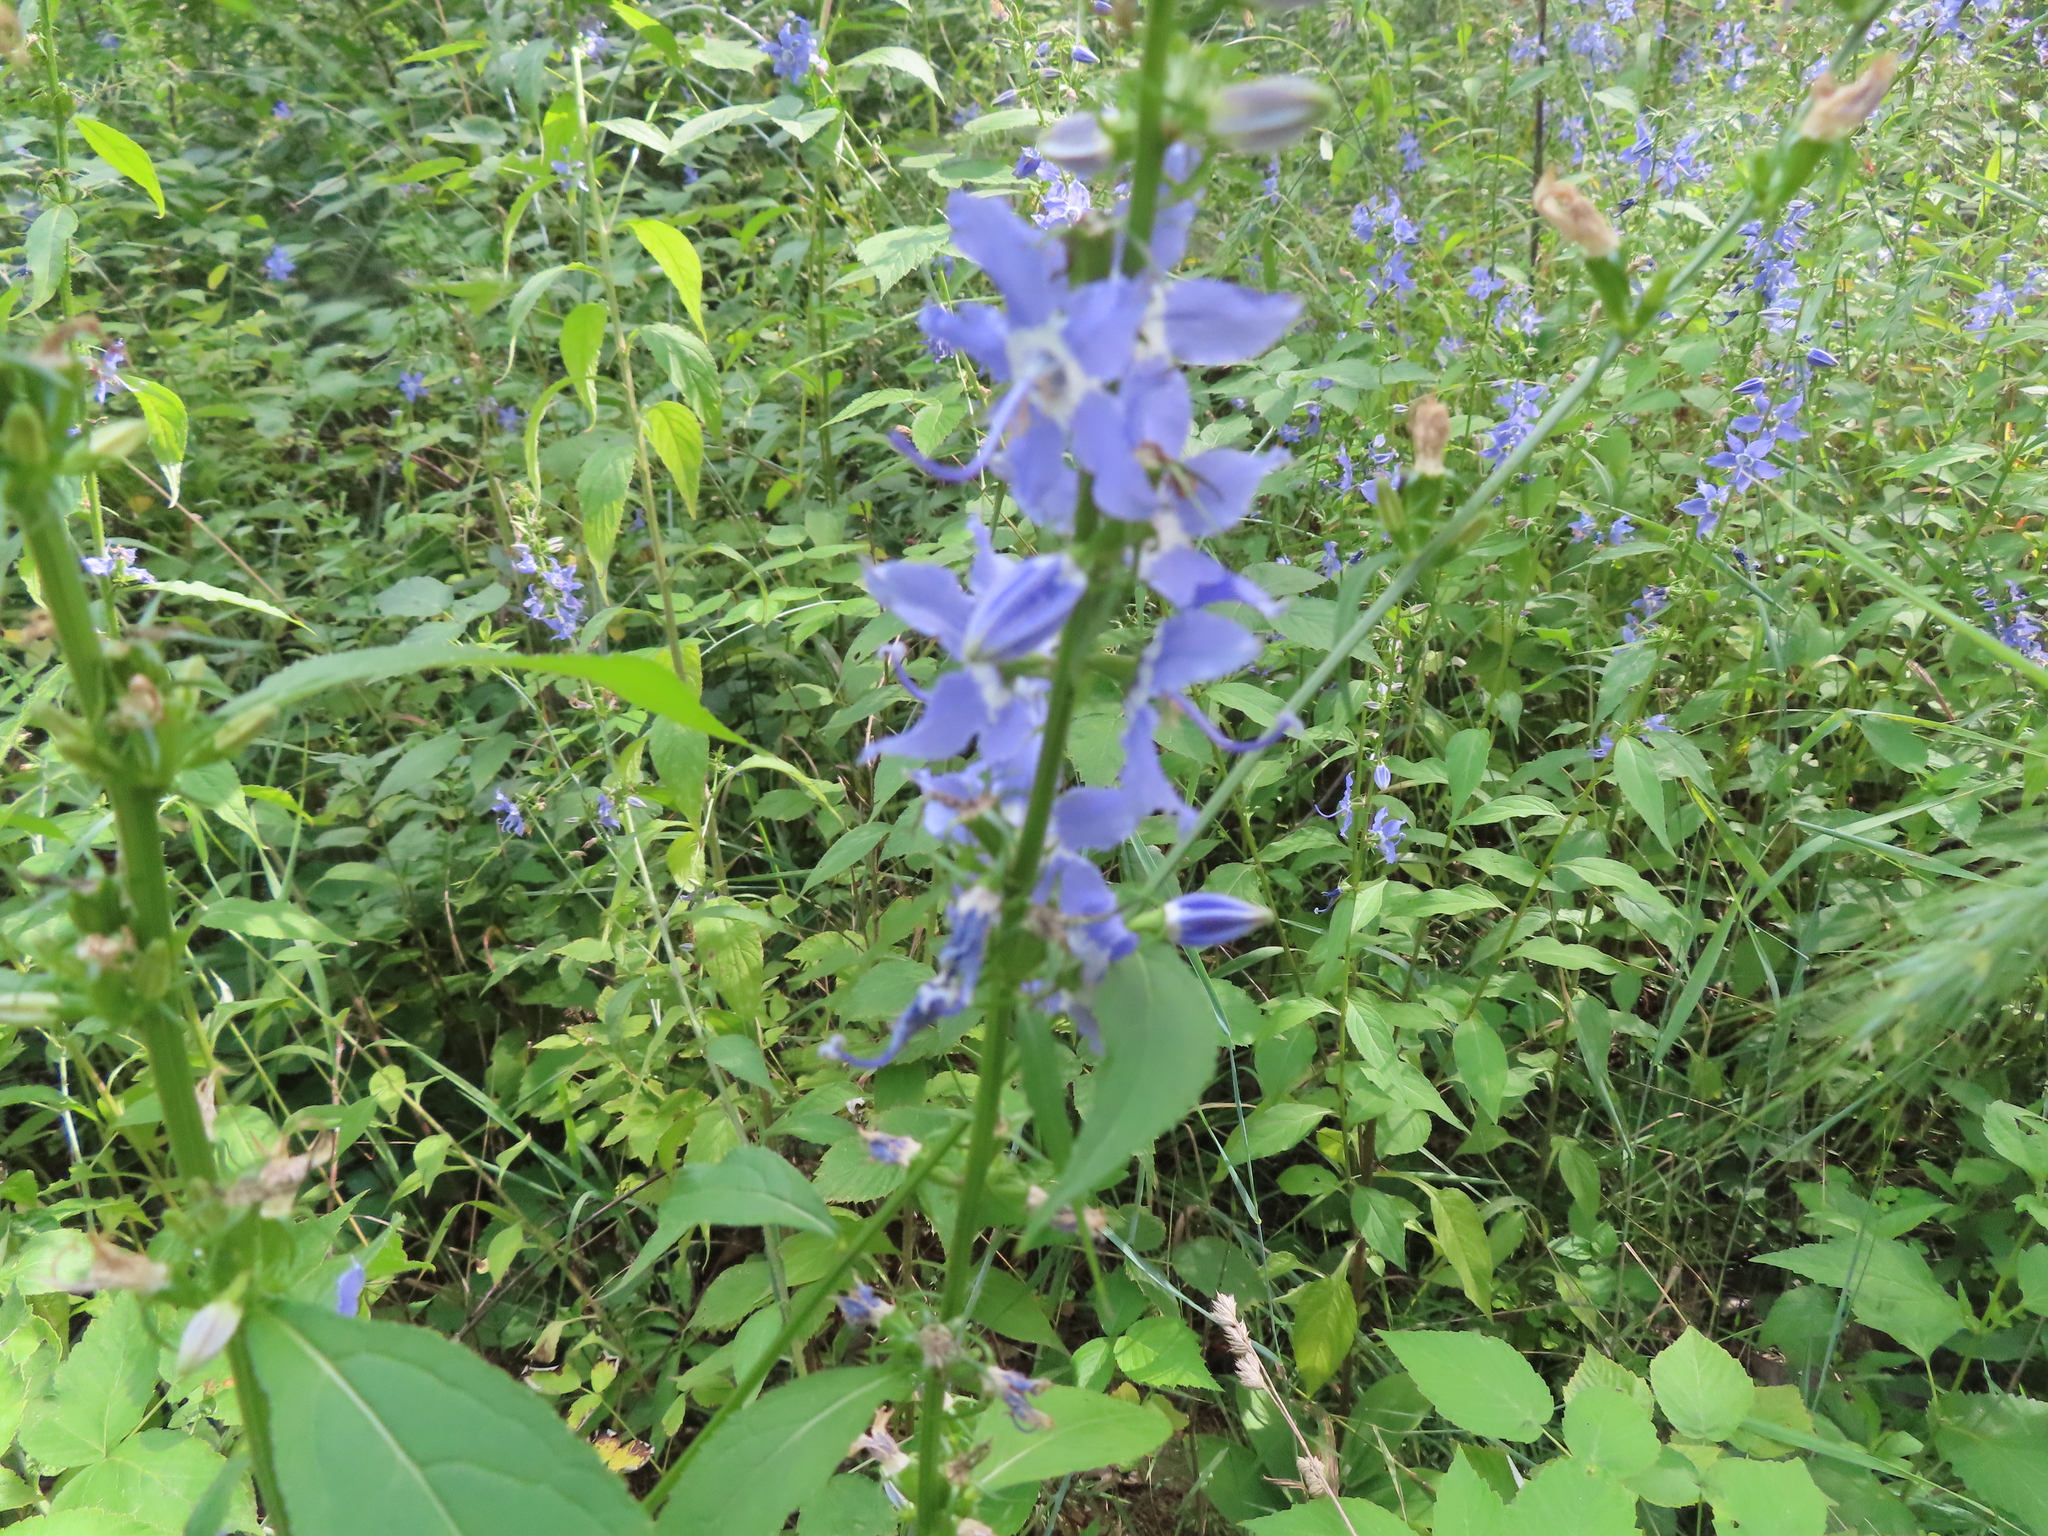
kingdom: Plantae
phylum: Tracheophyta
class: Magnoliopsida
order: Asterales
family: Campanulaceae
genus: Campanulastrum
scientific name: Campanulastrum americanum
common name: American bellflower
